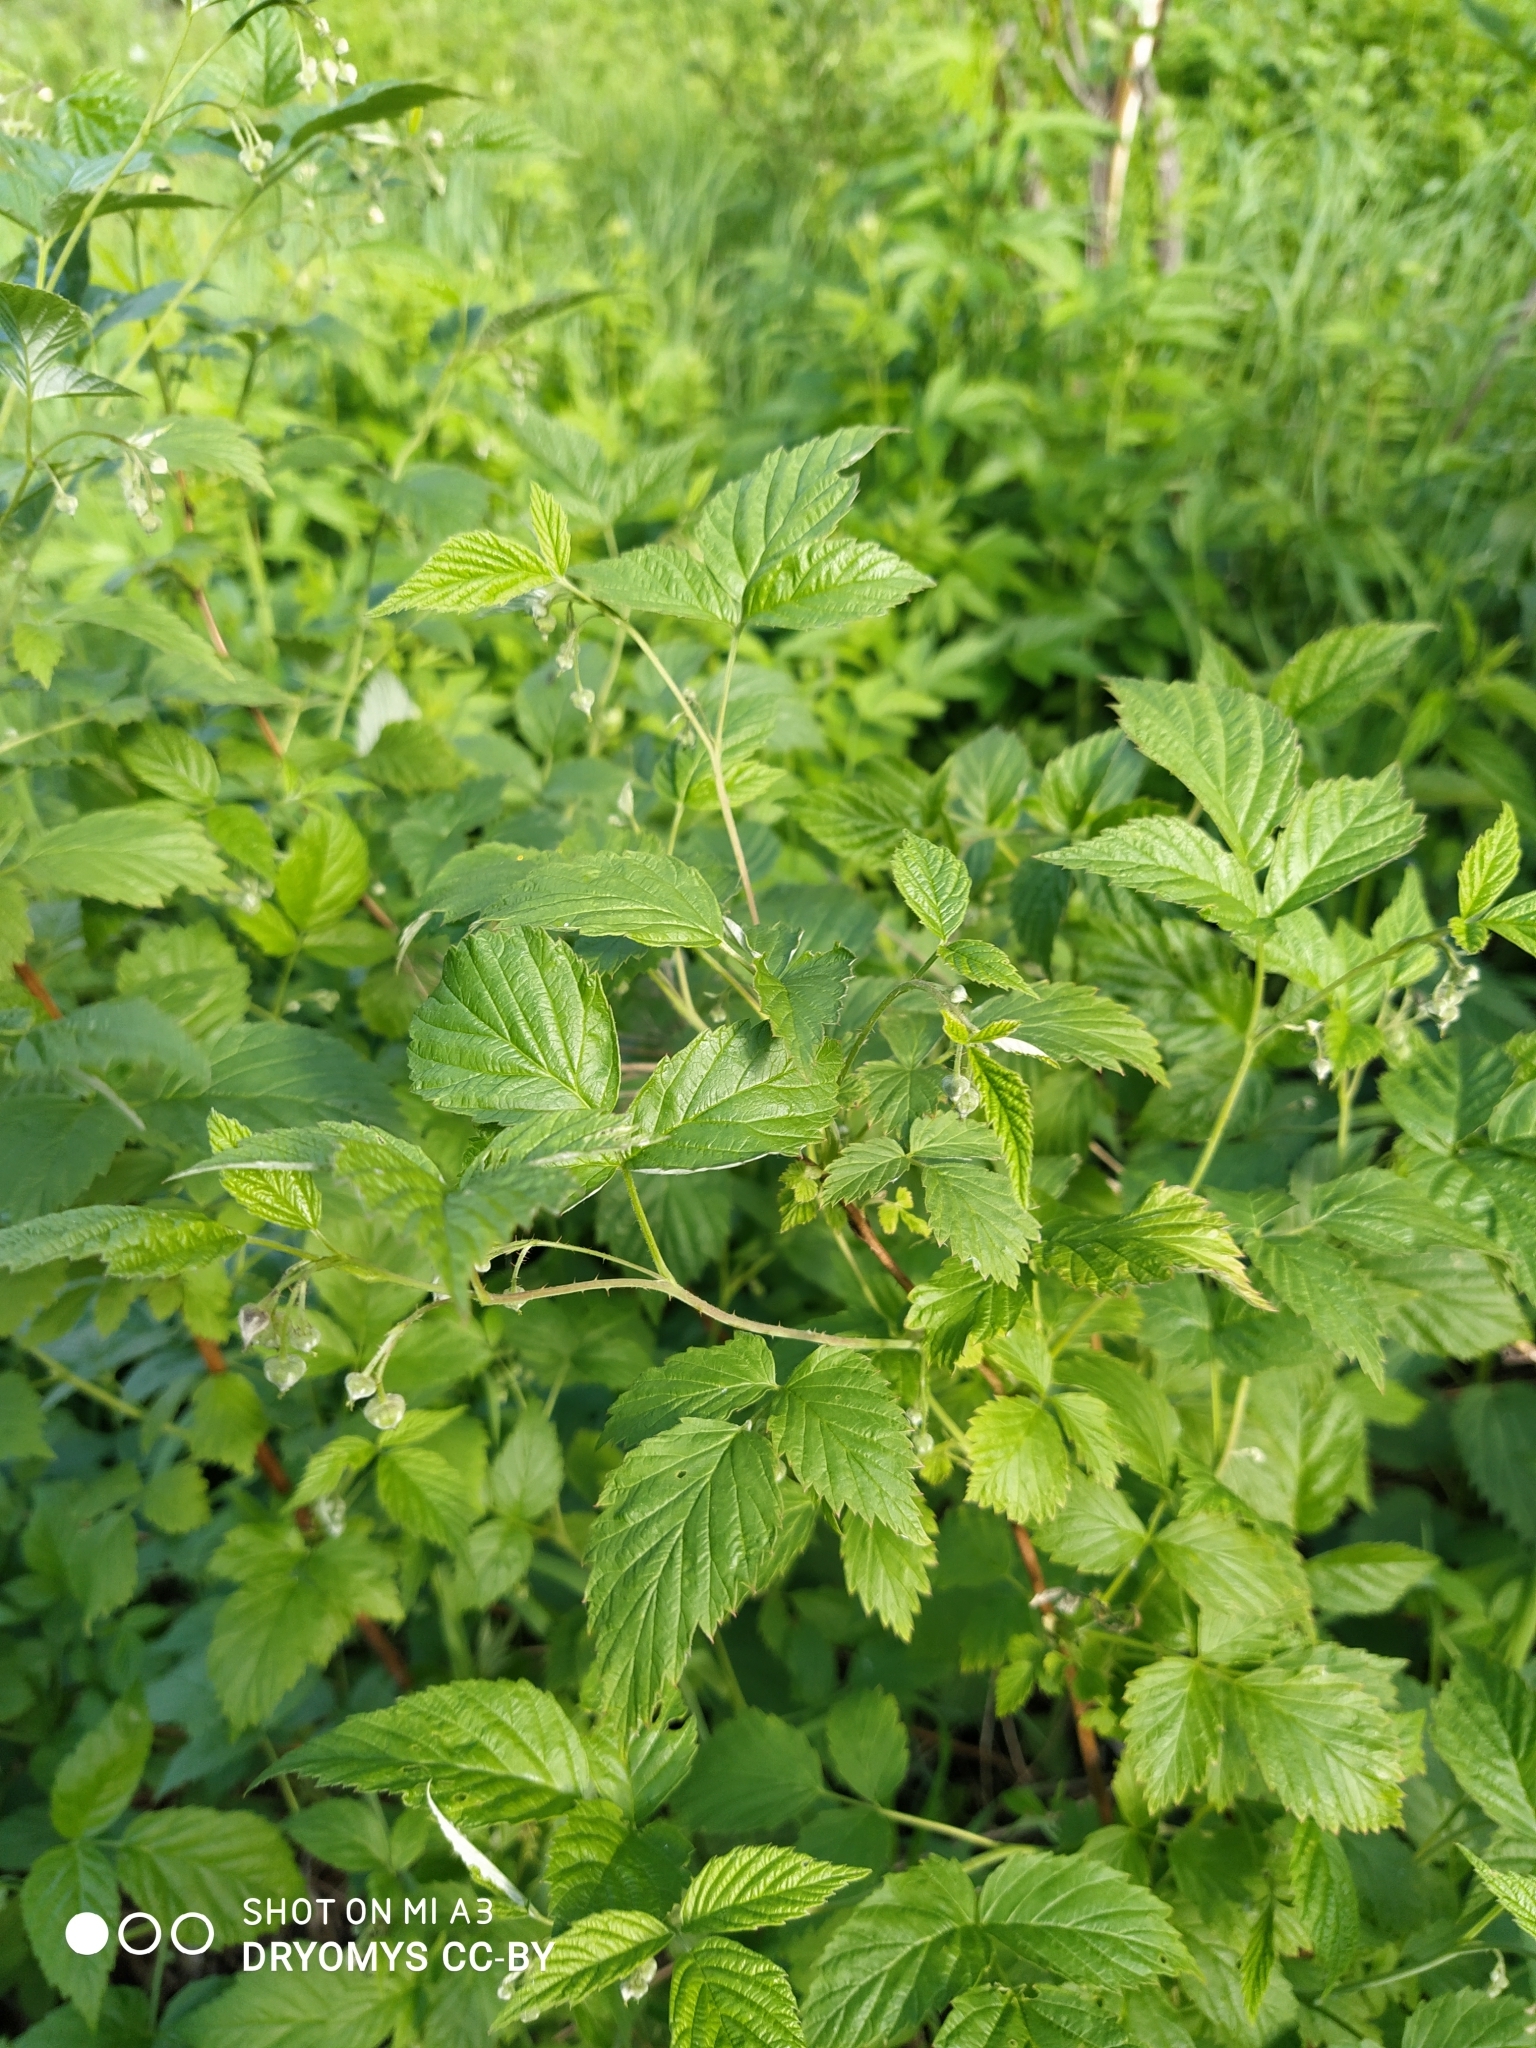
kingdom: Plantae
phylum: Tracheophyta
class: Magnoliopsida
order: Rosales
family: Rosaceae
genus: Rubus
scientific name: Rubus idaeus
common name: Raspberry
